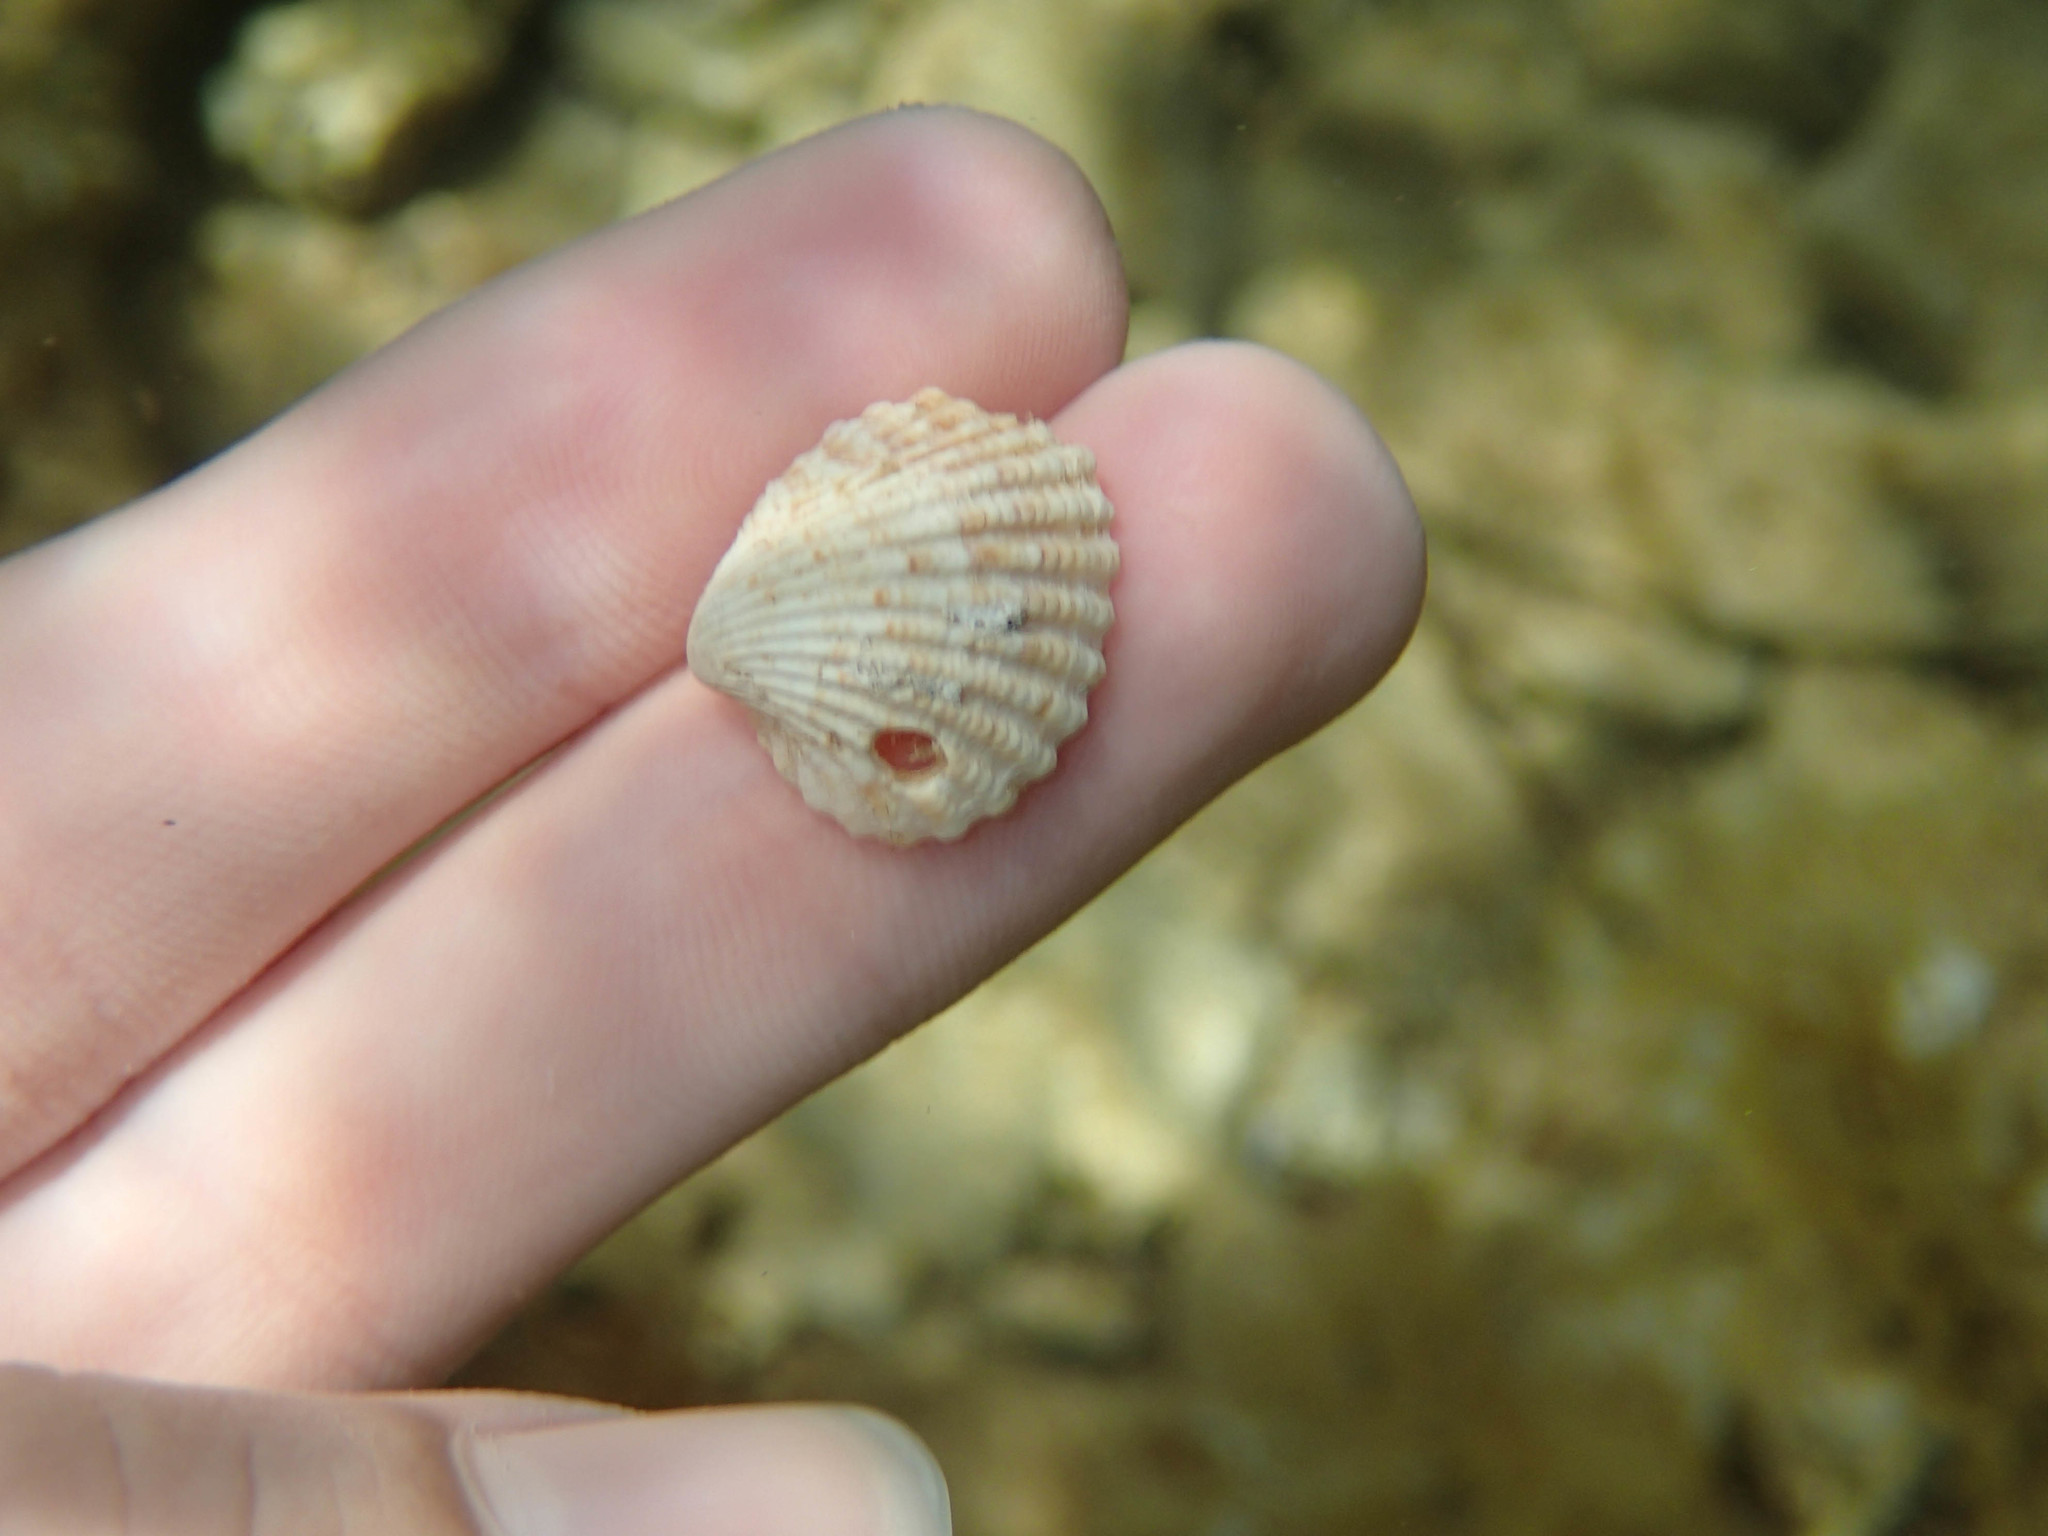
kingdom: Animalia
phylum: Mollusca
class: Bivalvia
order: Carditida
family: Carditidae
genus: Cardites
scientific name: Cardites antiquatus
